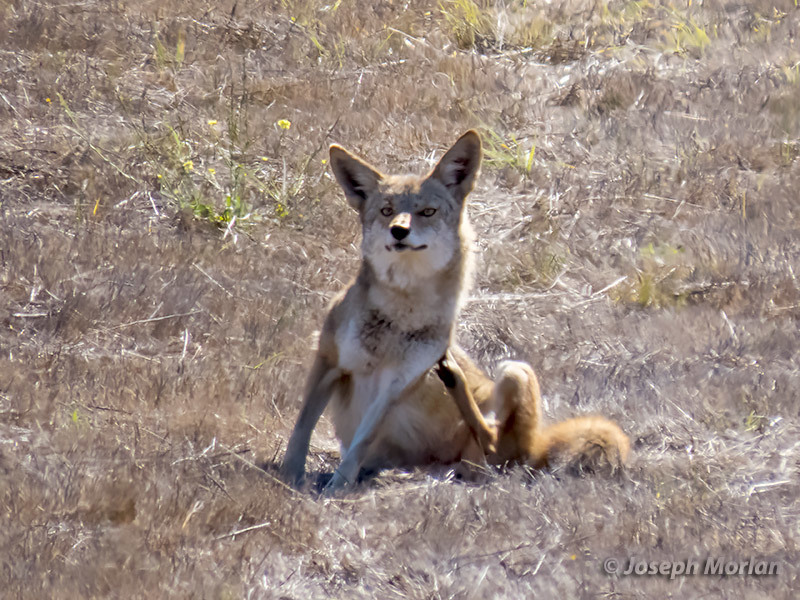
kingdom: Animalia
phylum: Chordata
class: Mammalia
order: Carnivora
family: Canidae
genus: Canis
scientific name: Canis latrans
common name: Coyote
